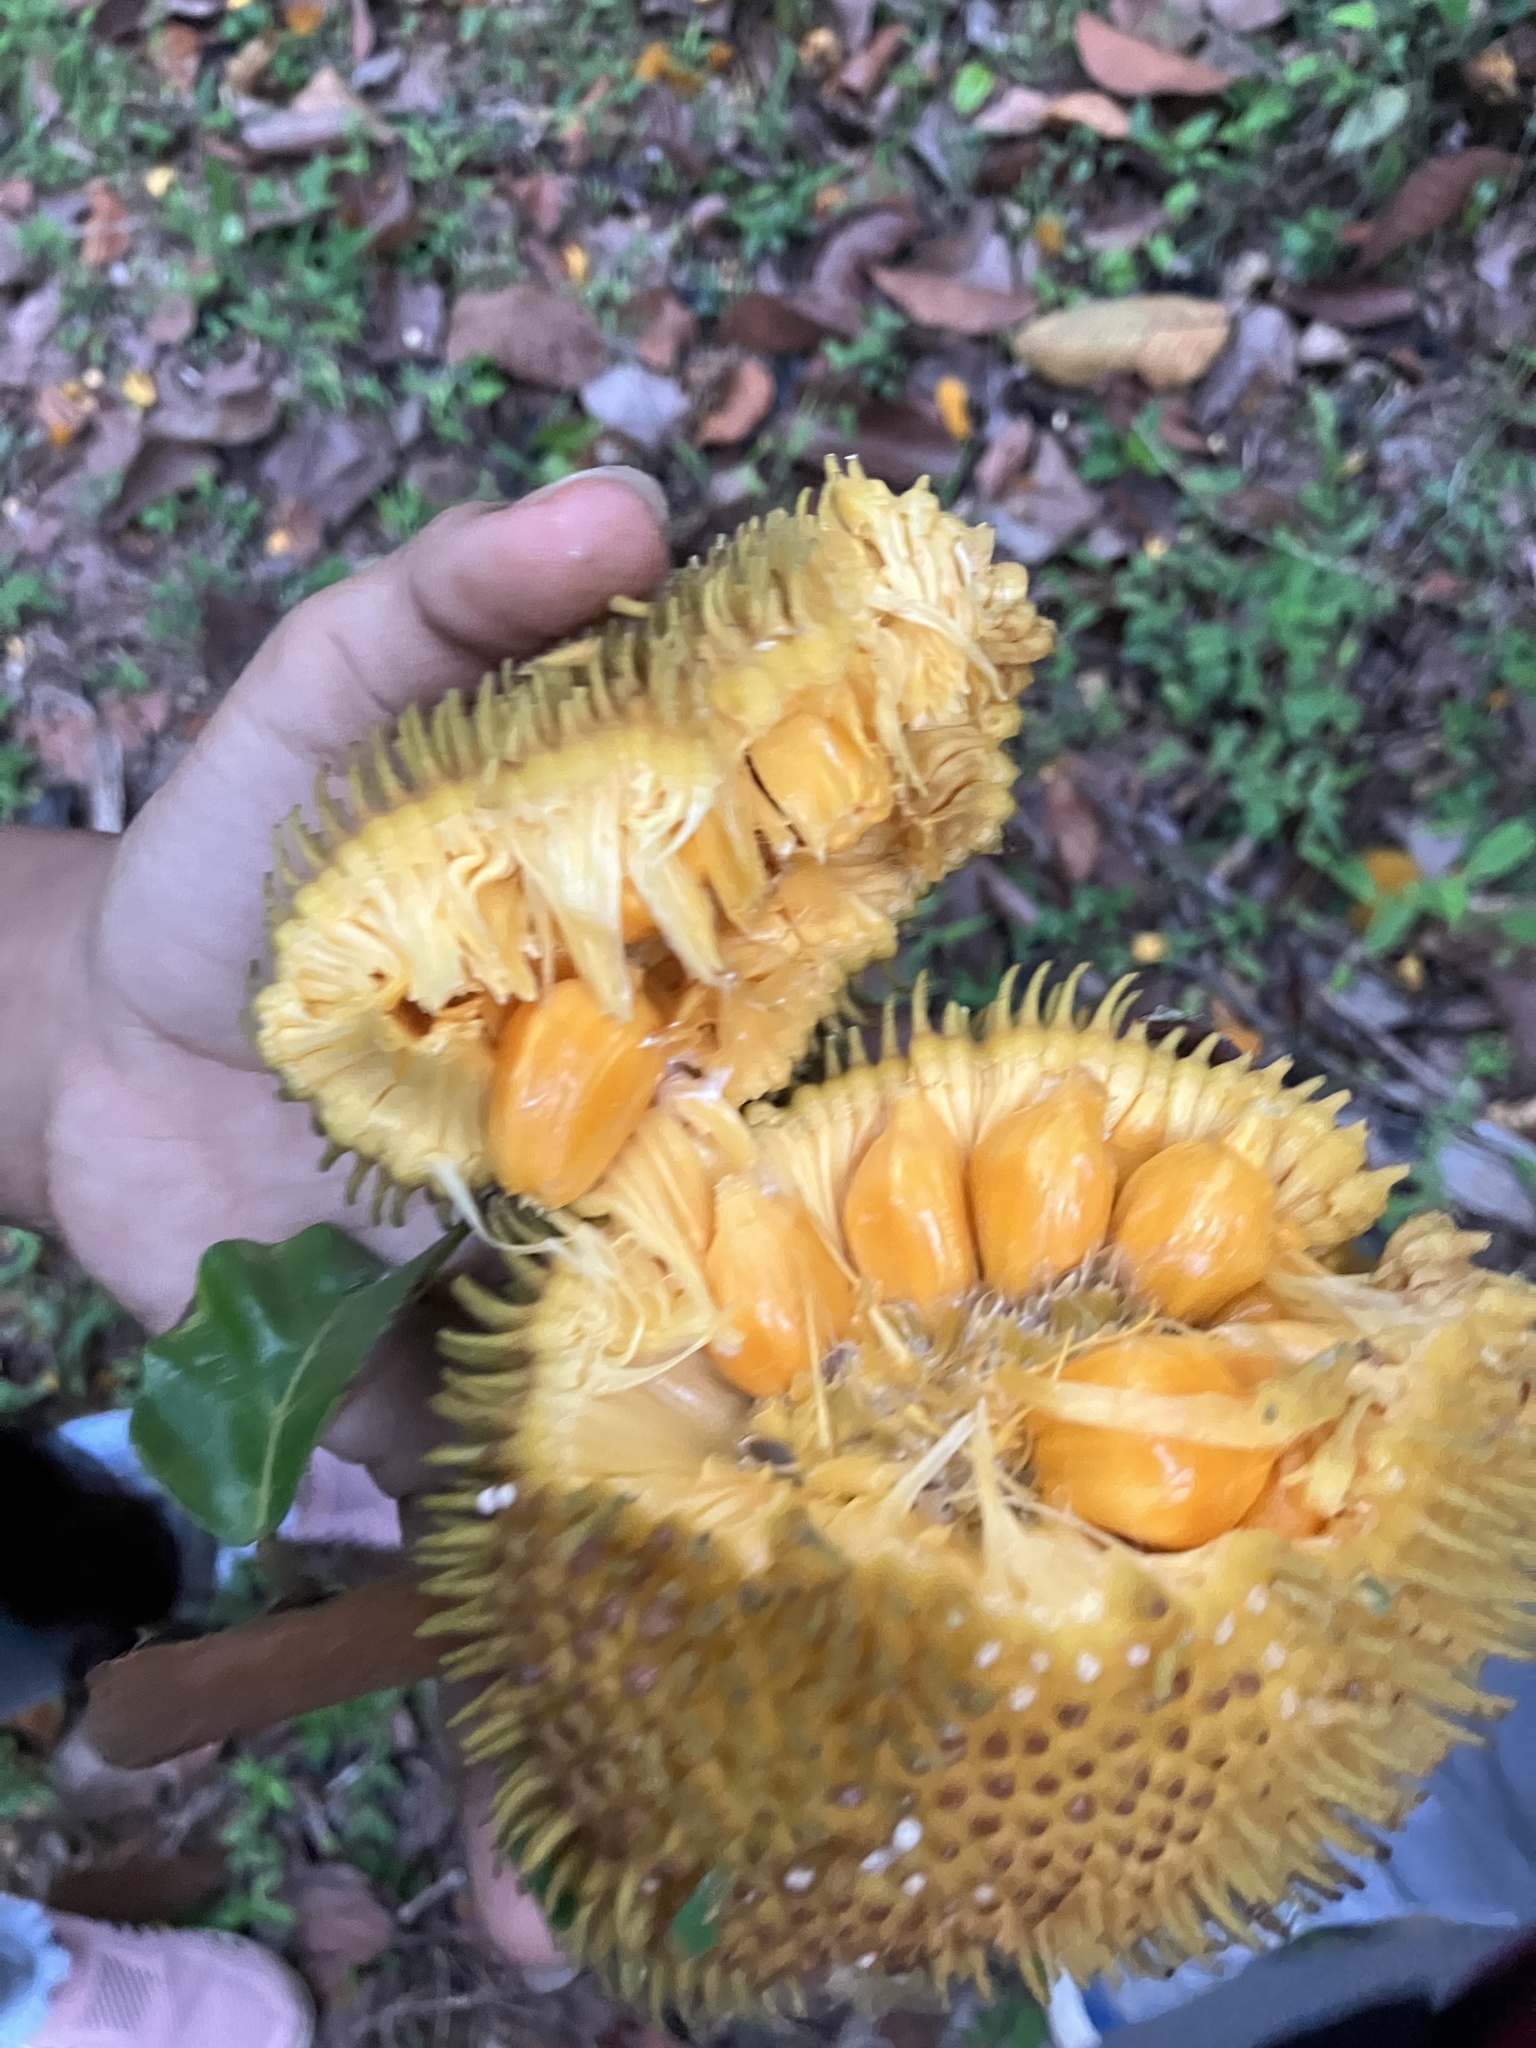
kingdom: Plantae
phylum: Tracheophyta
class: Magnoliopsida
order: Rosales
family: Moraceae
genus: Artocarpus
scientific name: Artocarpus hirsutus
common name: Hairy bread-fruit tree
